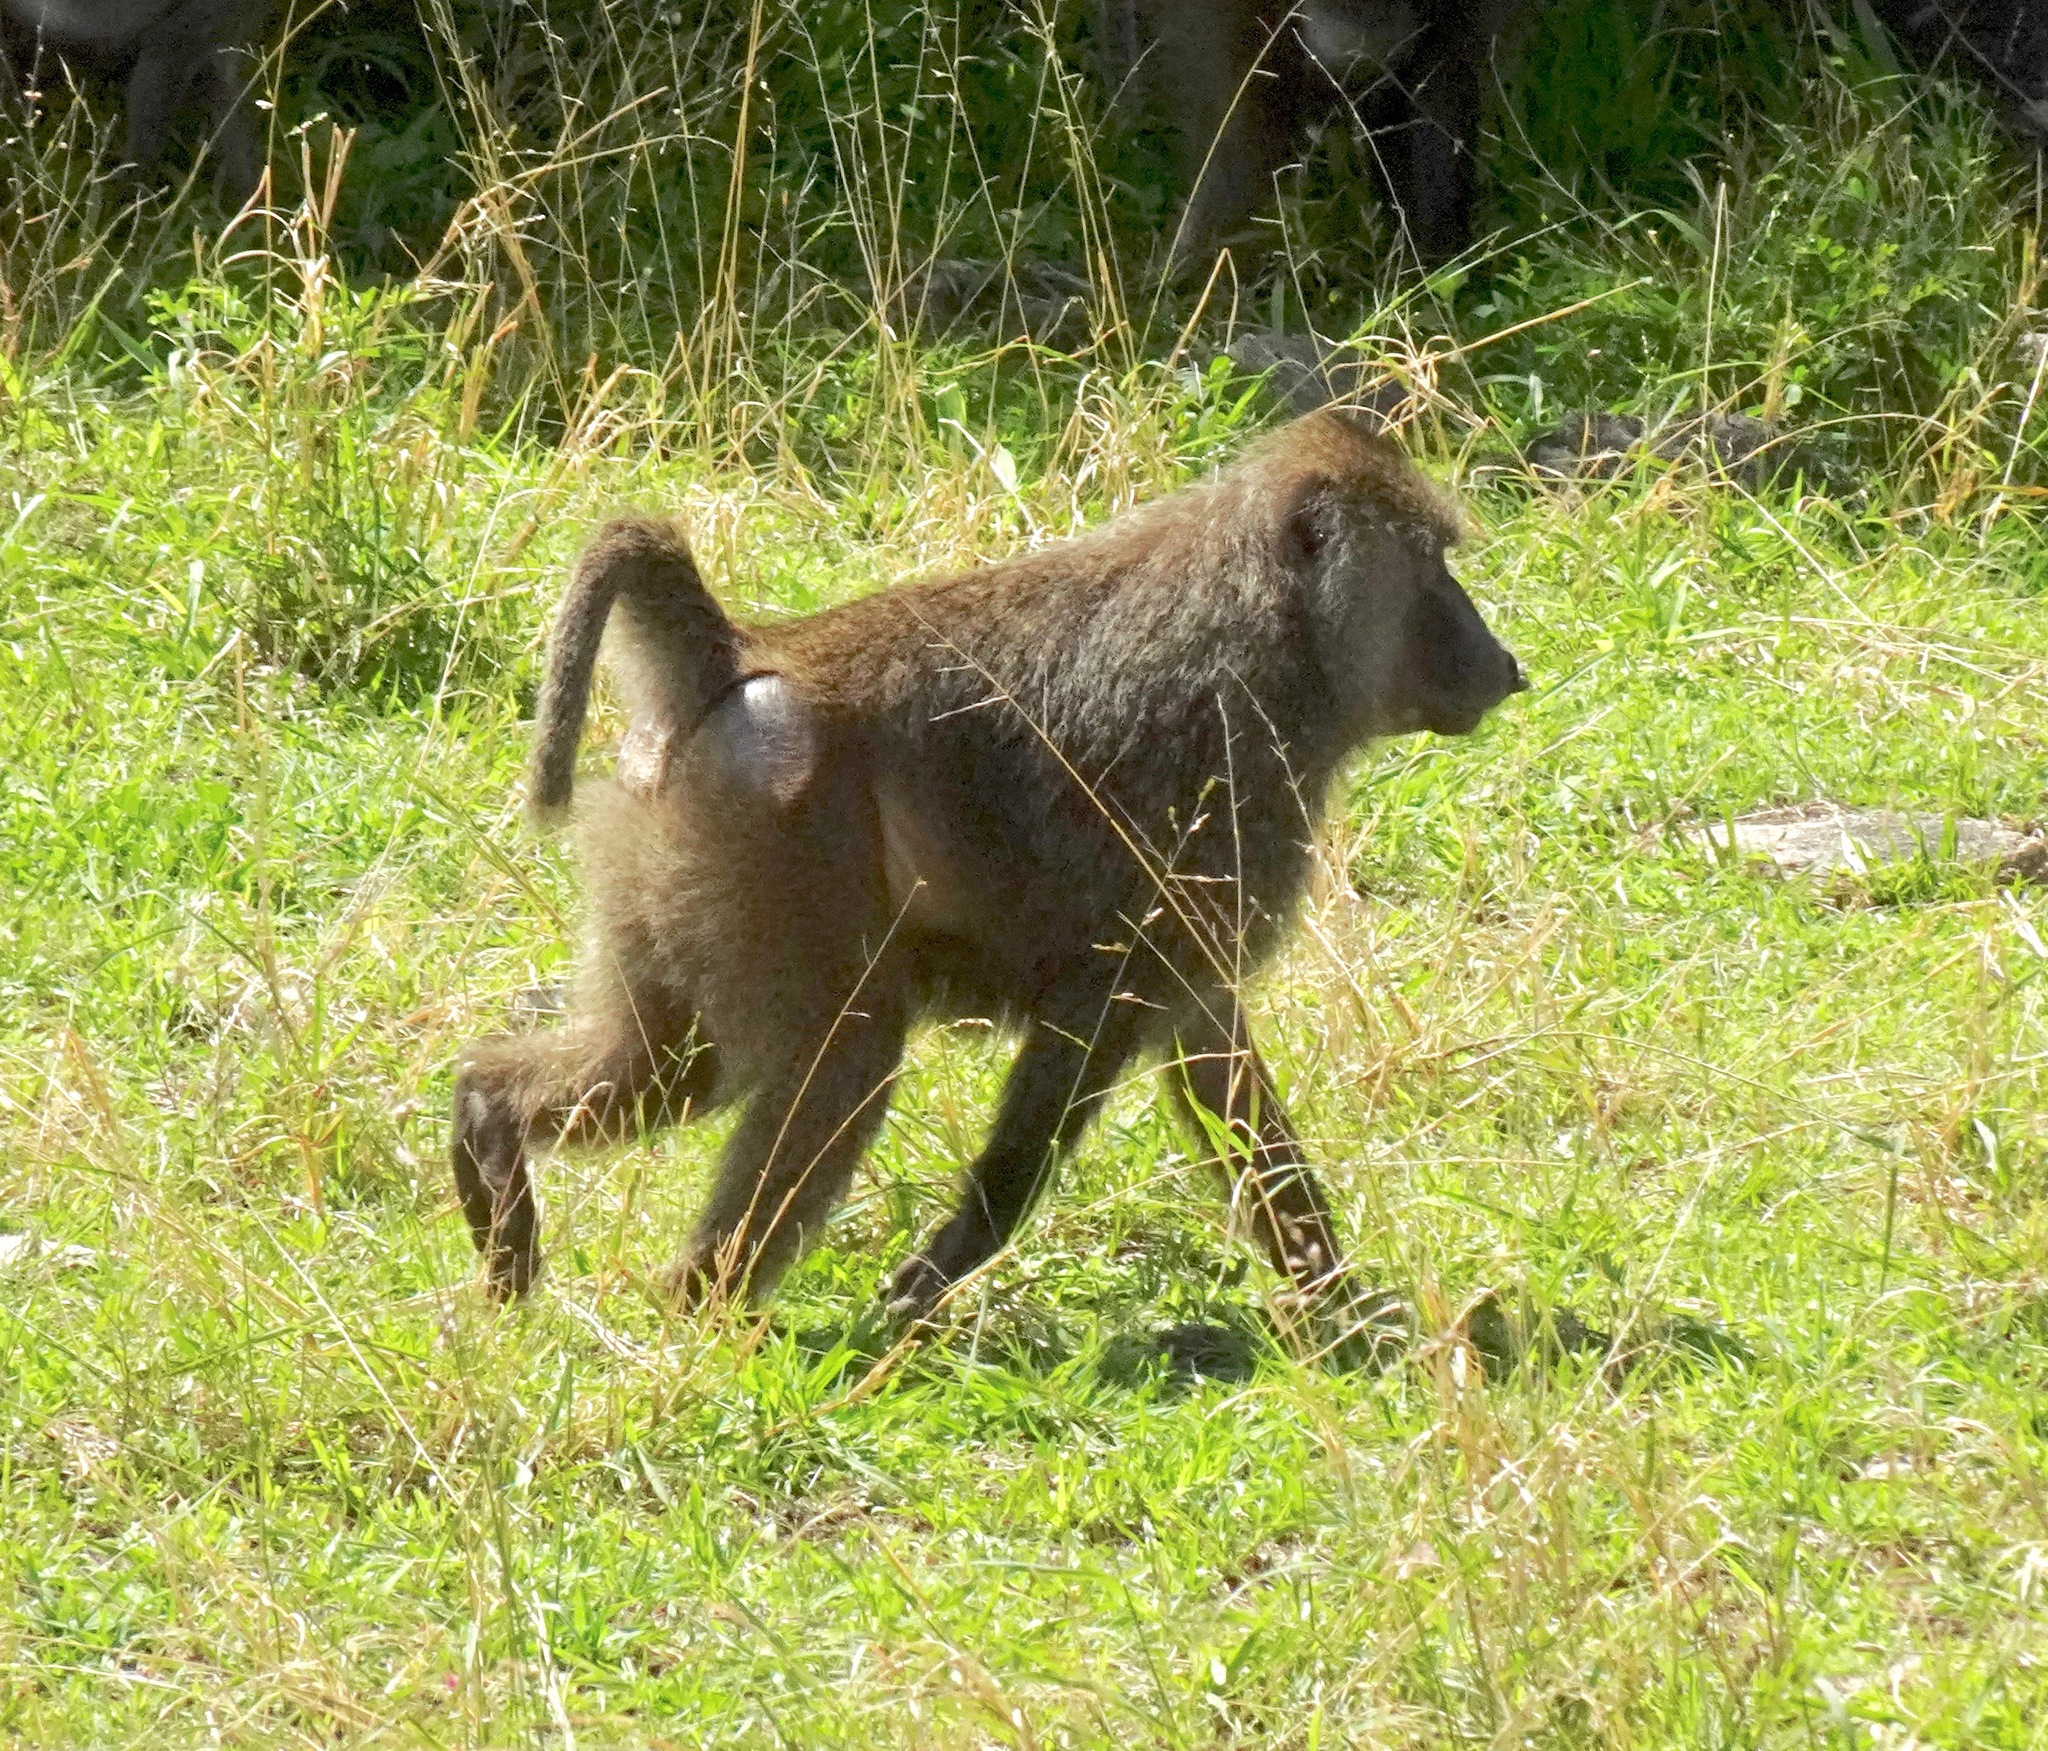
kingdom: Animalia
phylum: Chordata
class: Mammalia
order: Primates
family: Cercopithecidae
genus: Papio
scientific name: Papio anubis
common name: Olive baboon
